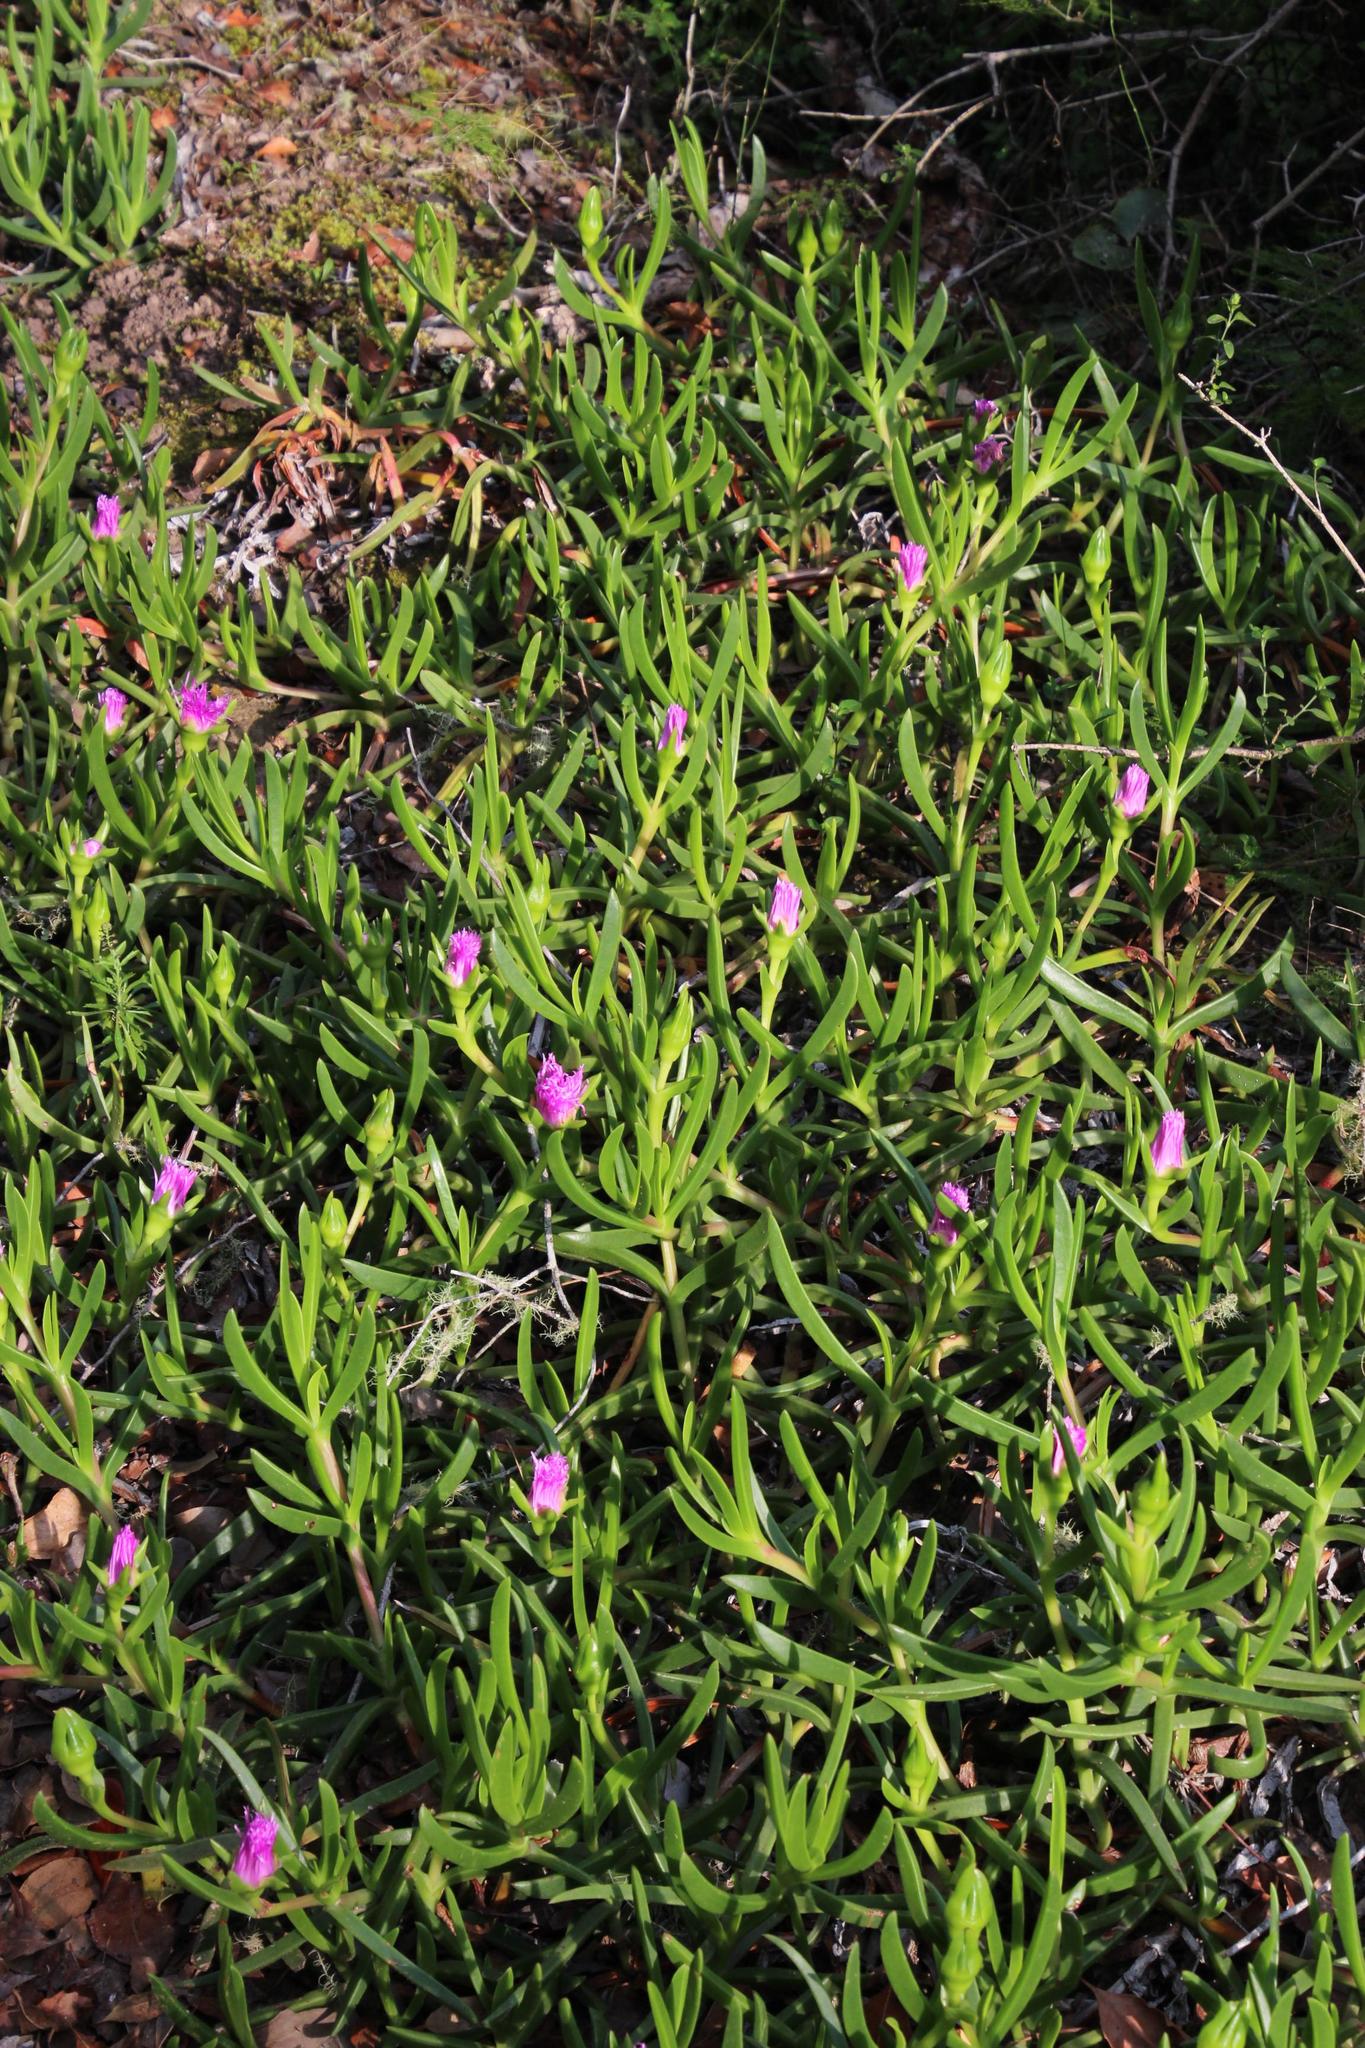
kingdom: Plantae
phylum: Tracheophyta
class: Magnoliopsida
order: Caryophyllales
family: Aizoaceae
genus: Carpobrotus
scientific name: Carpobrotus deliciosus
